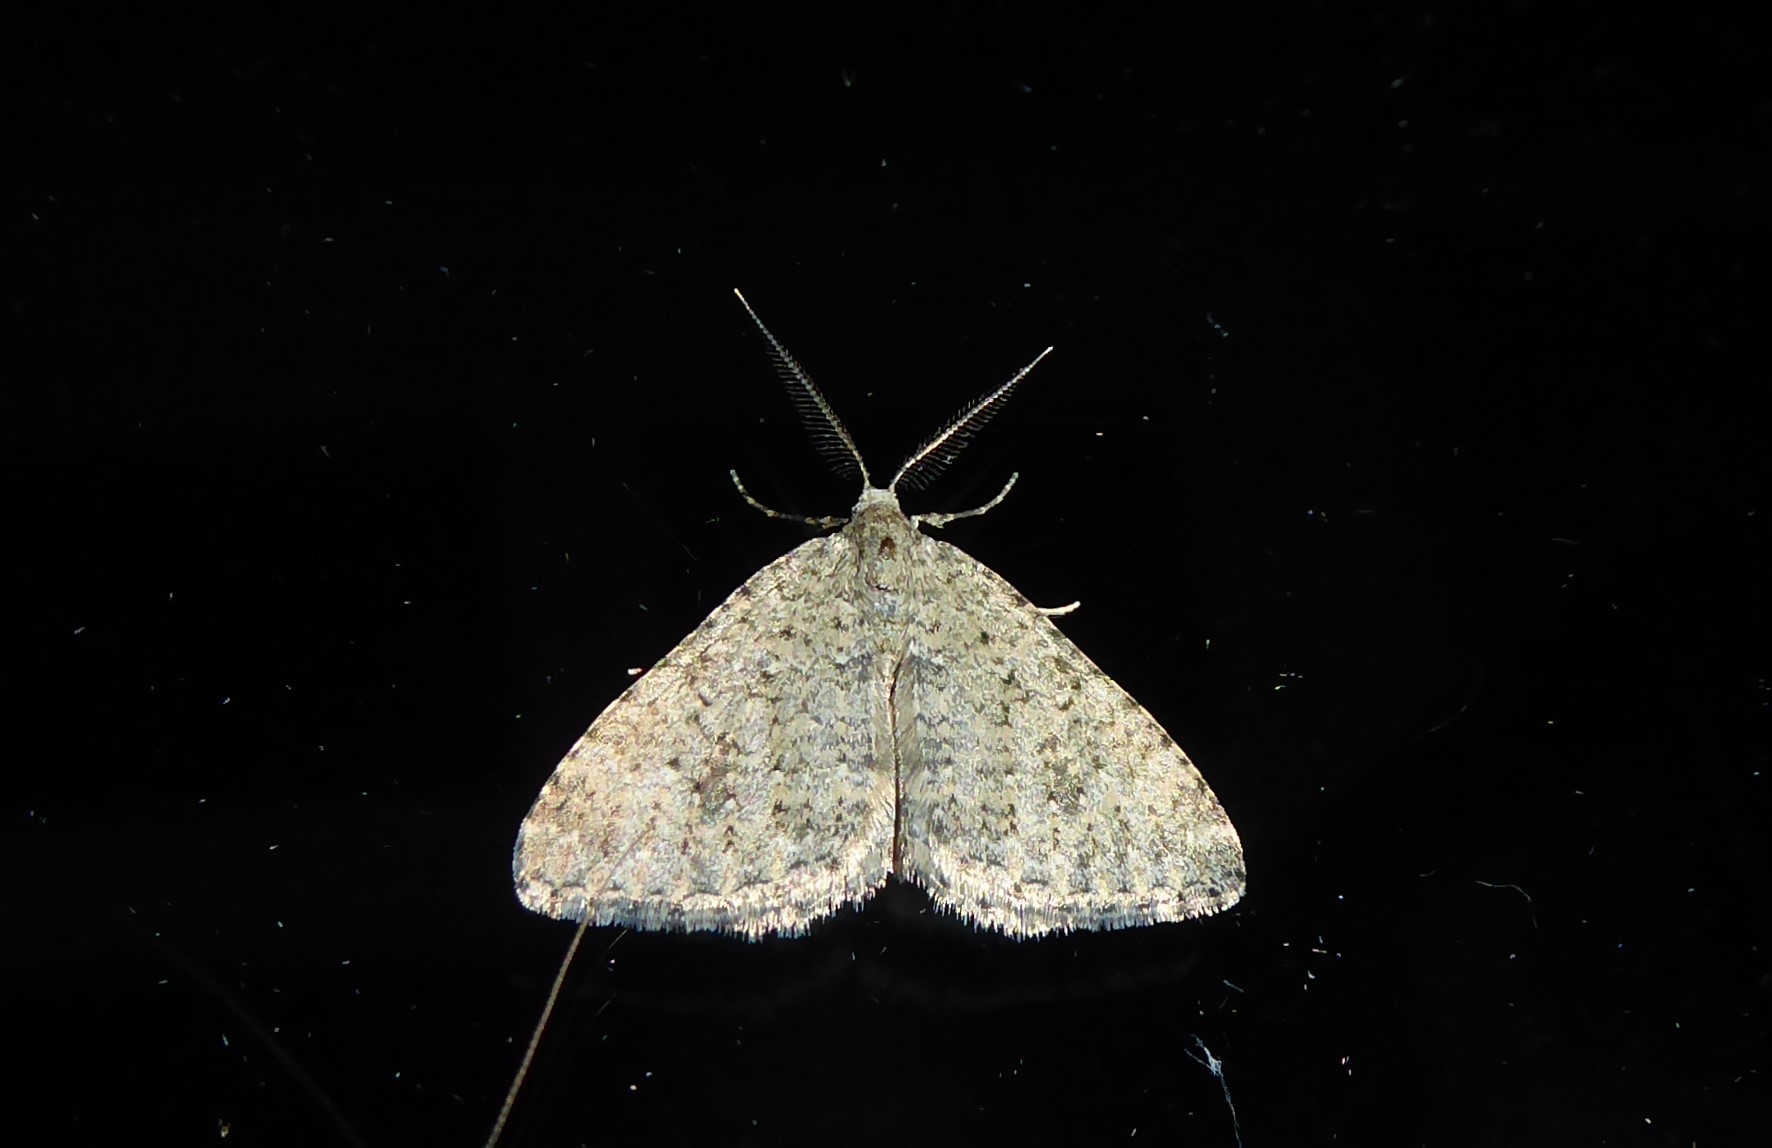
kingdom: Animalia
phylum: Arthropoda
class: Insecta
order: Lepidoptera
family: Geometridae
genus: Helastia
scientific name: Helastia corcularia
